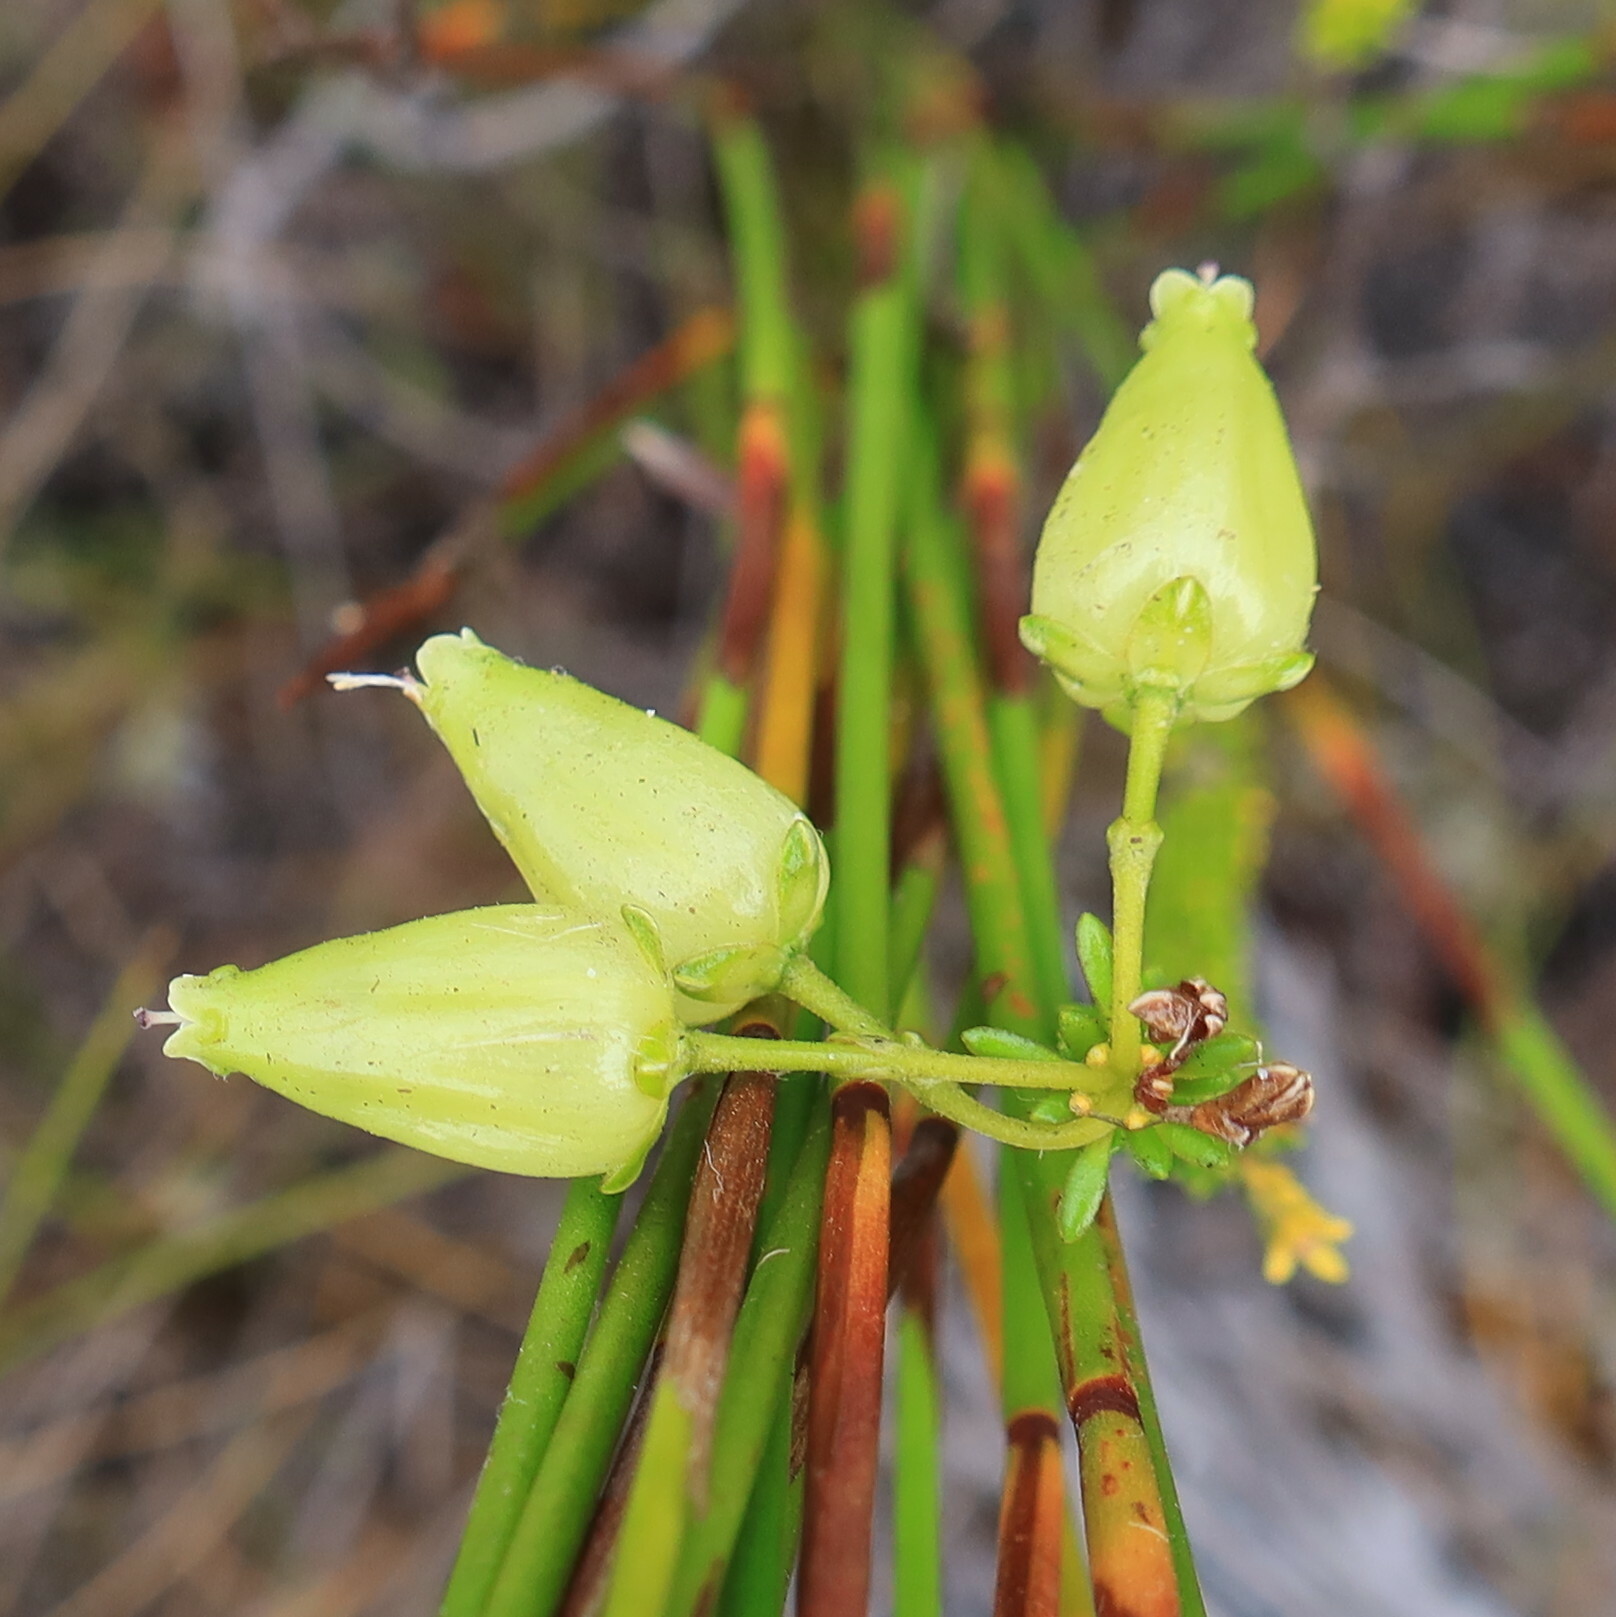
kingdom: Plantae
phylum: Tracheophyta
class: Magnoliopsida
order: Ericales
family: Ericaceae
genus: Erica
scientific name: Erica urna-viridis
